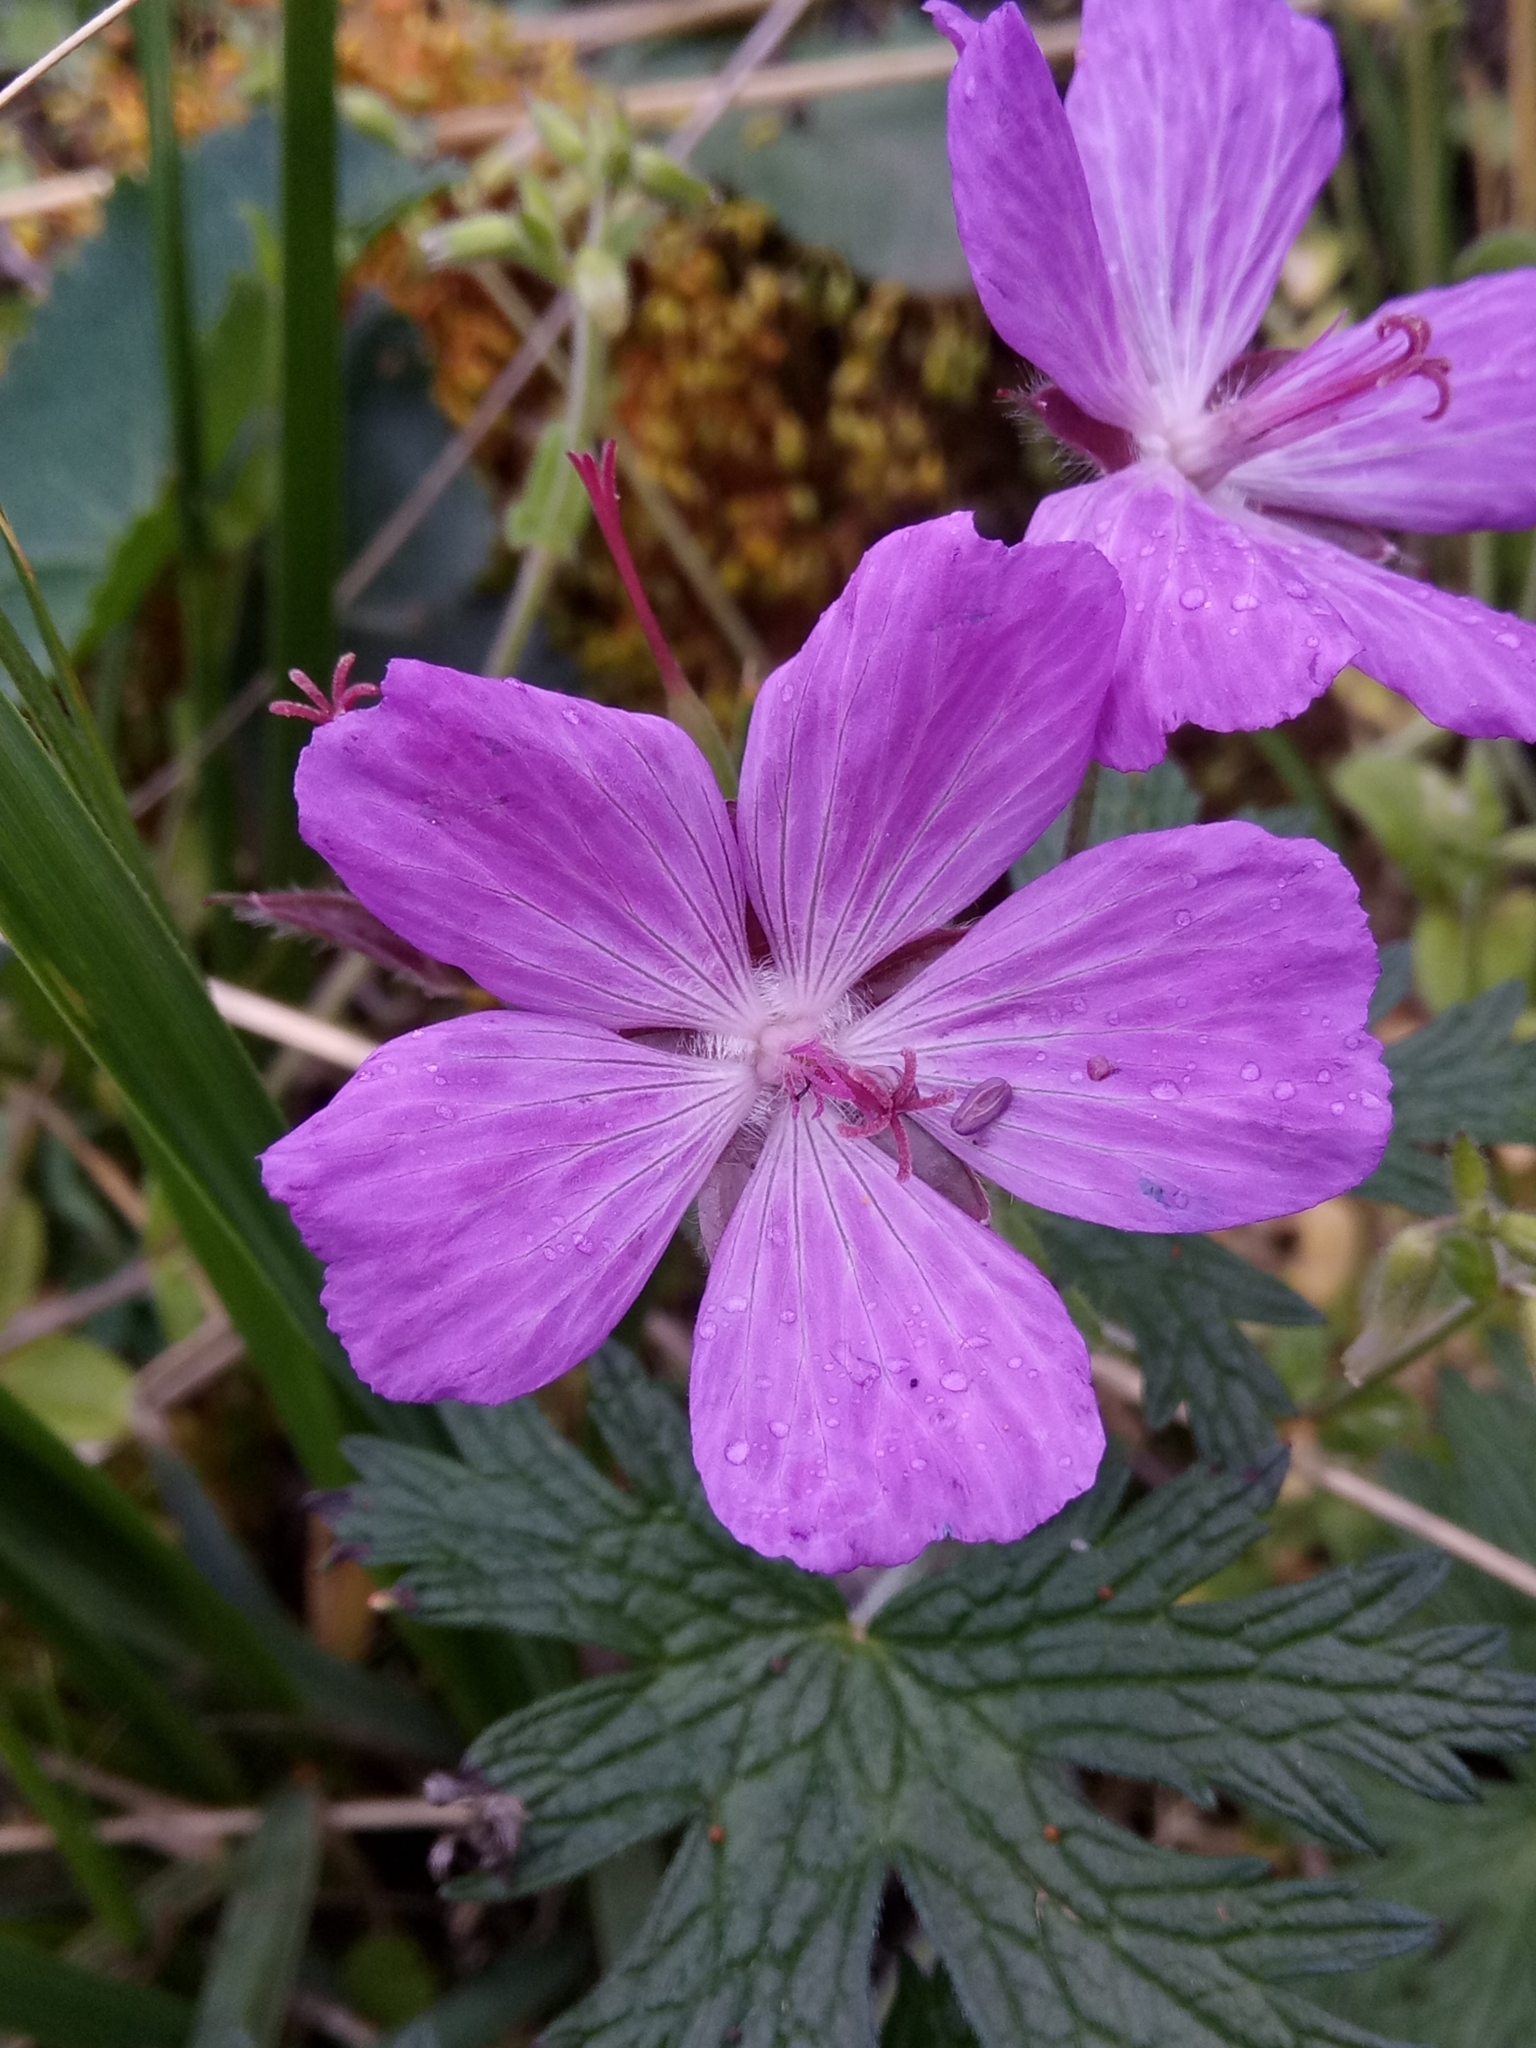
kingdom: Plantae
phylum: Tracheophyta
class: Magnoliopsida
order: Geraniales
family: Geraniaceae
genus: Geranium
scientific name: Geranium atlanticum
